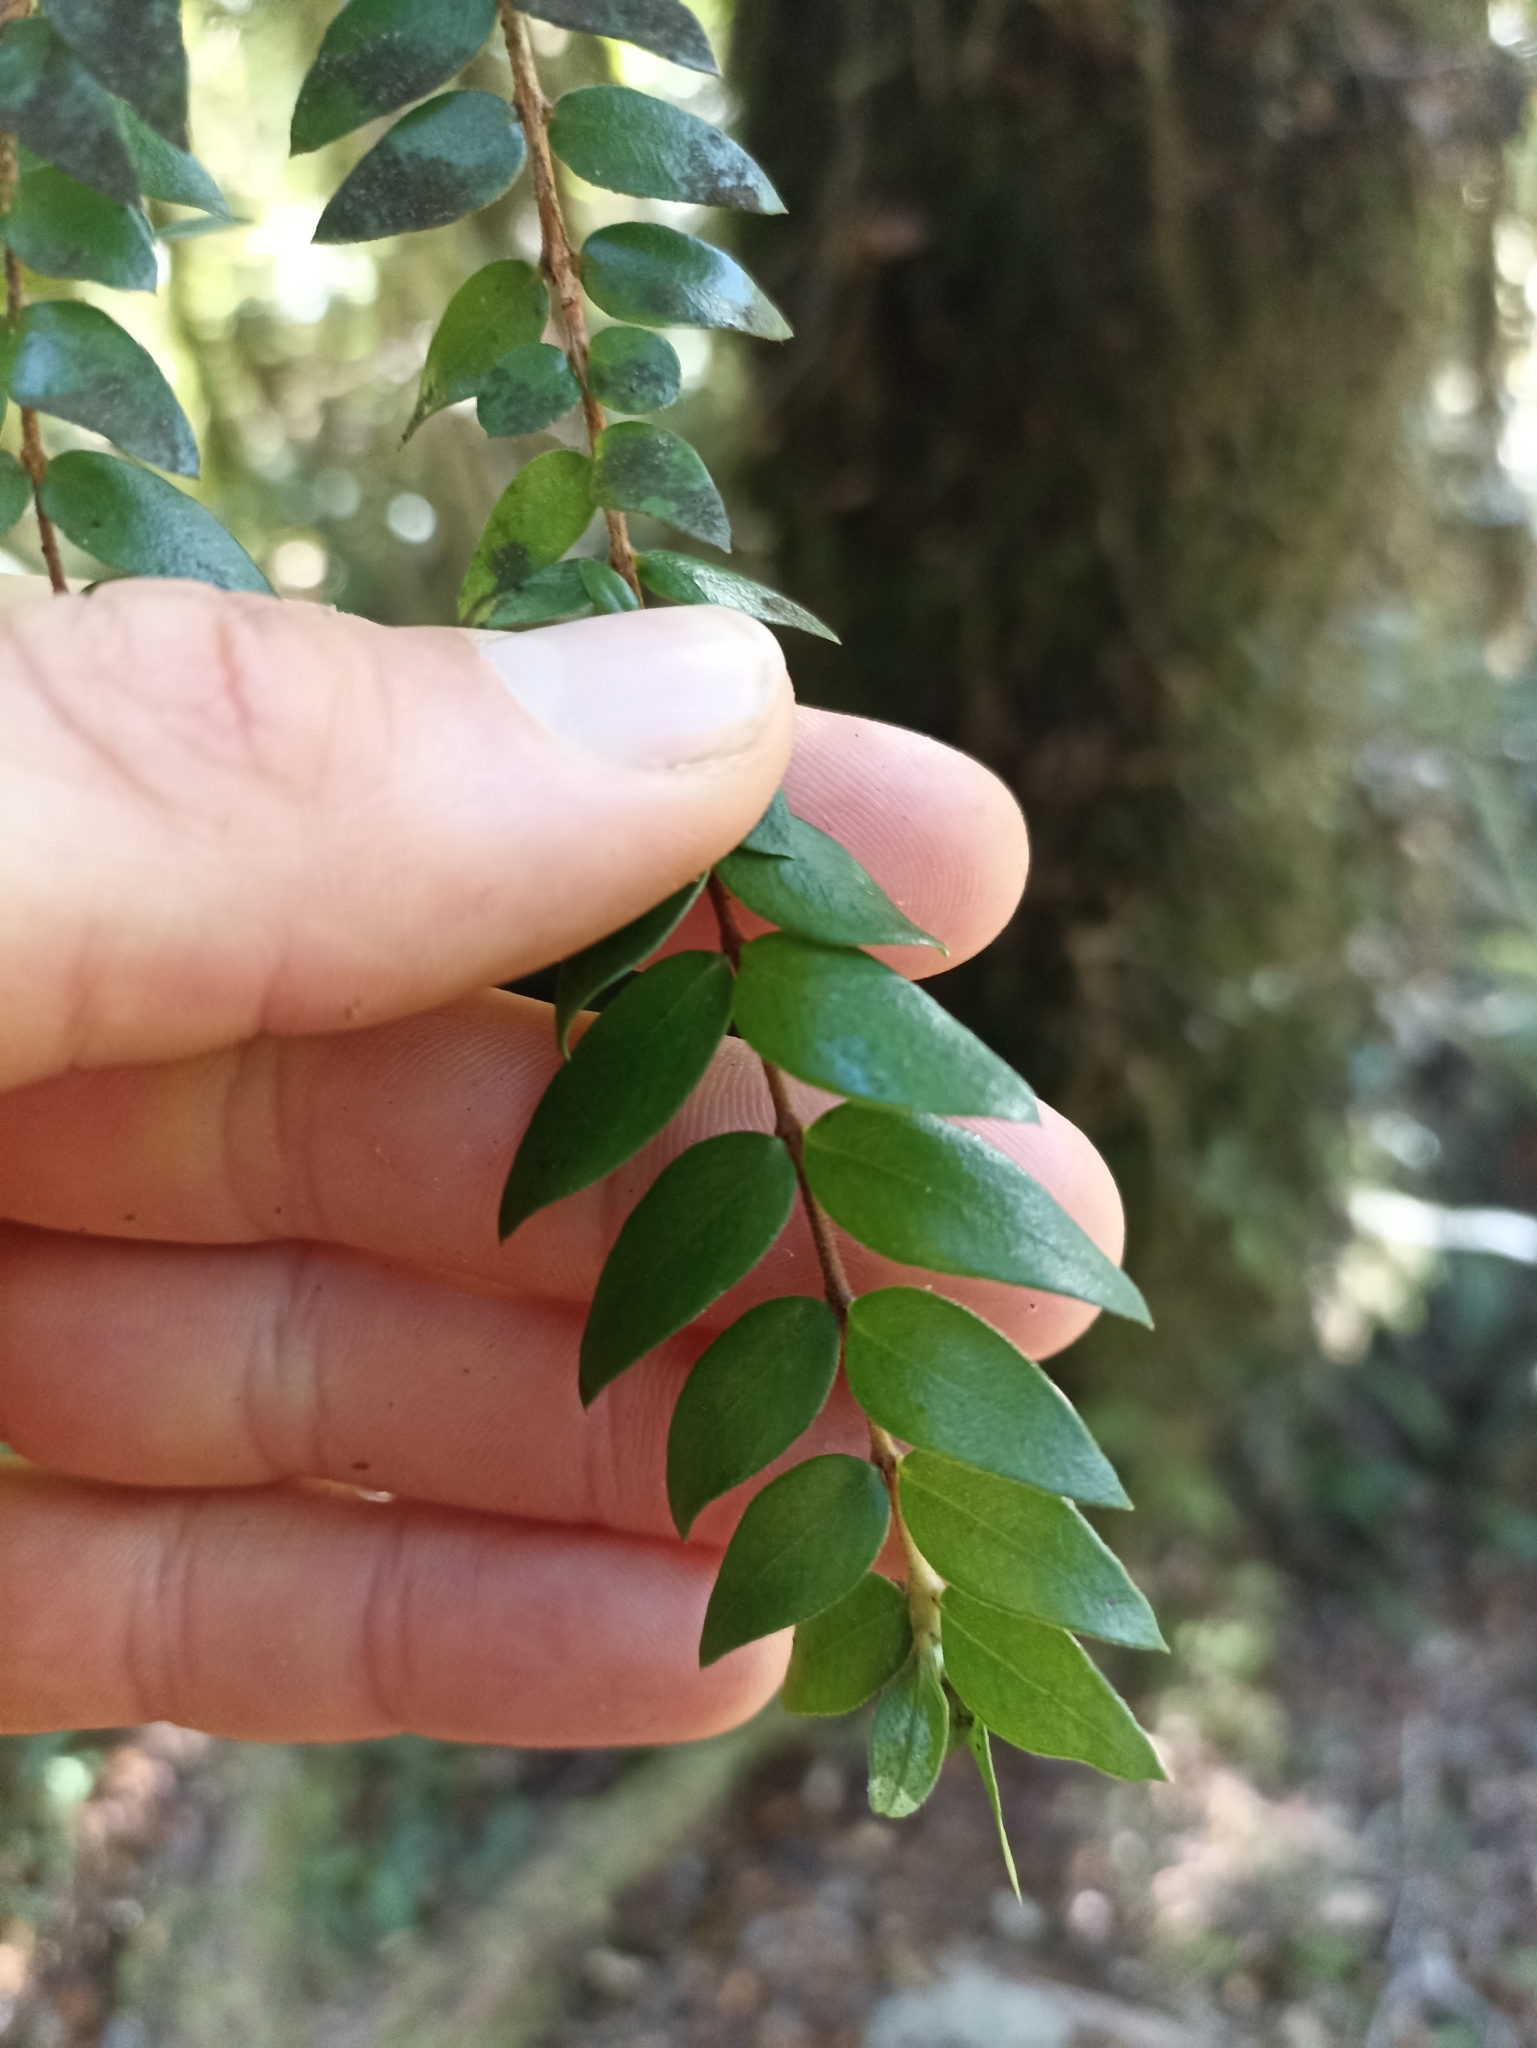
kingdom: Plantae
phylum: Tracheophyta
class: Magnoliopsida
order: Myrtales
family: Myrtaceae
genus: Metrosideros
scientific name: Metrosideros colensoi
